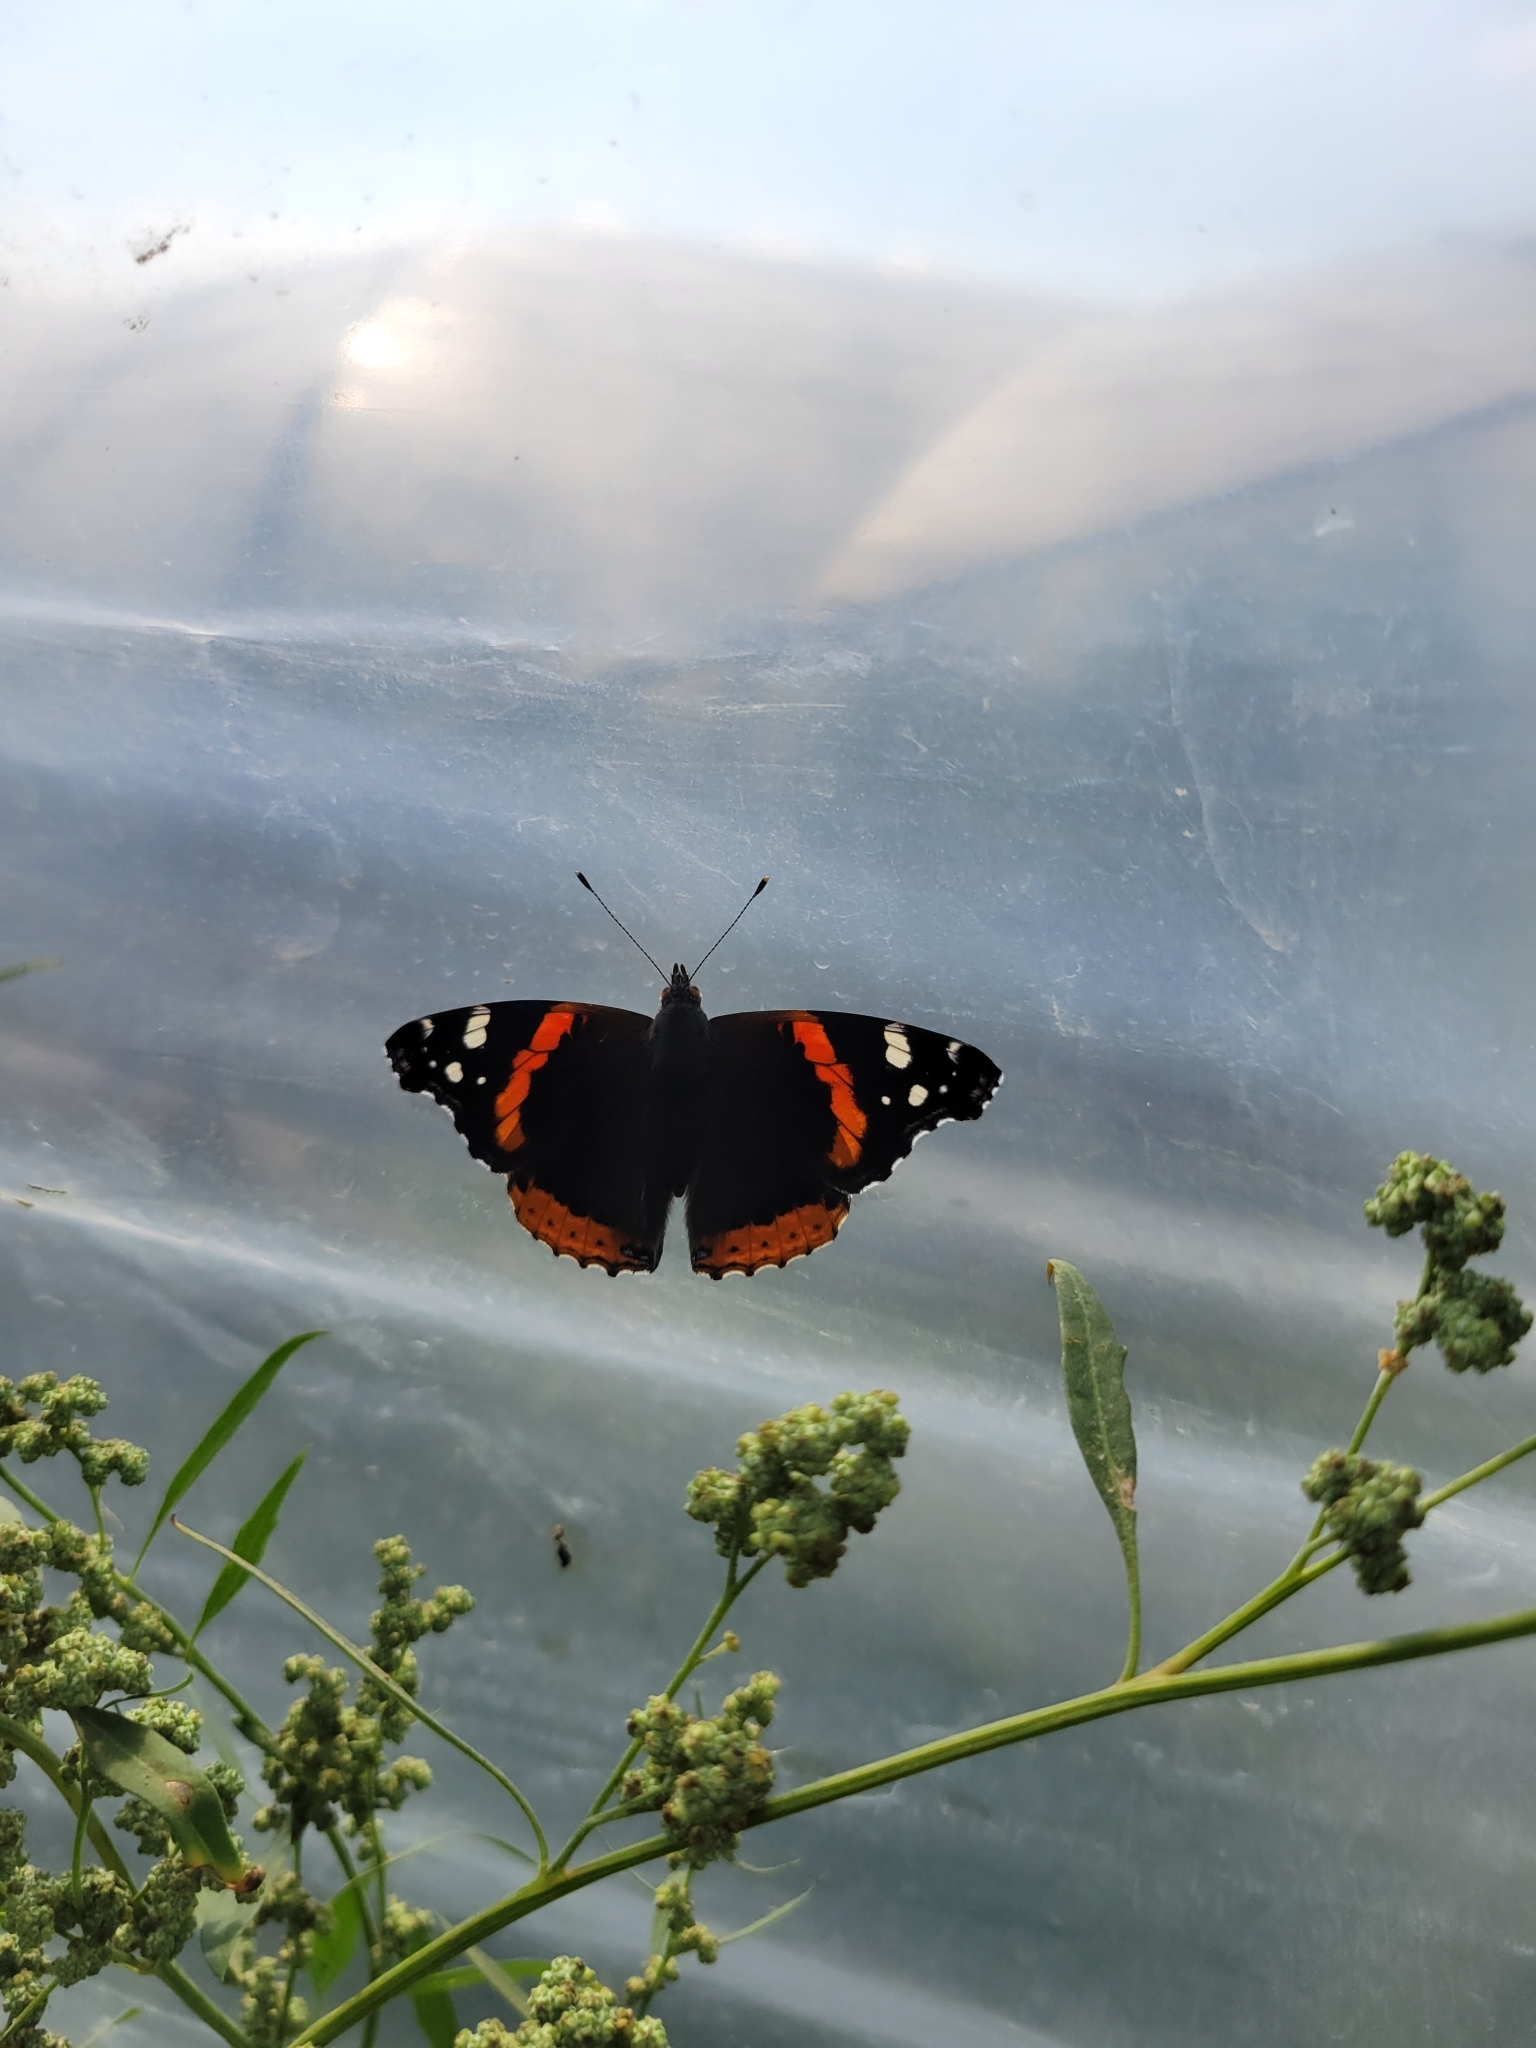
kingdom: Animalia
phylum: Arthropoda
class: Insecta
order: Lepidoptera
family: Nymphalidae
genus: Vanessa
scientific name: Vanessa atalanta
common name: Red admiral
